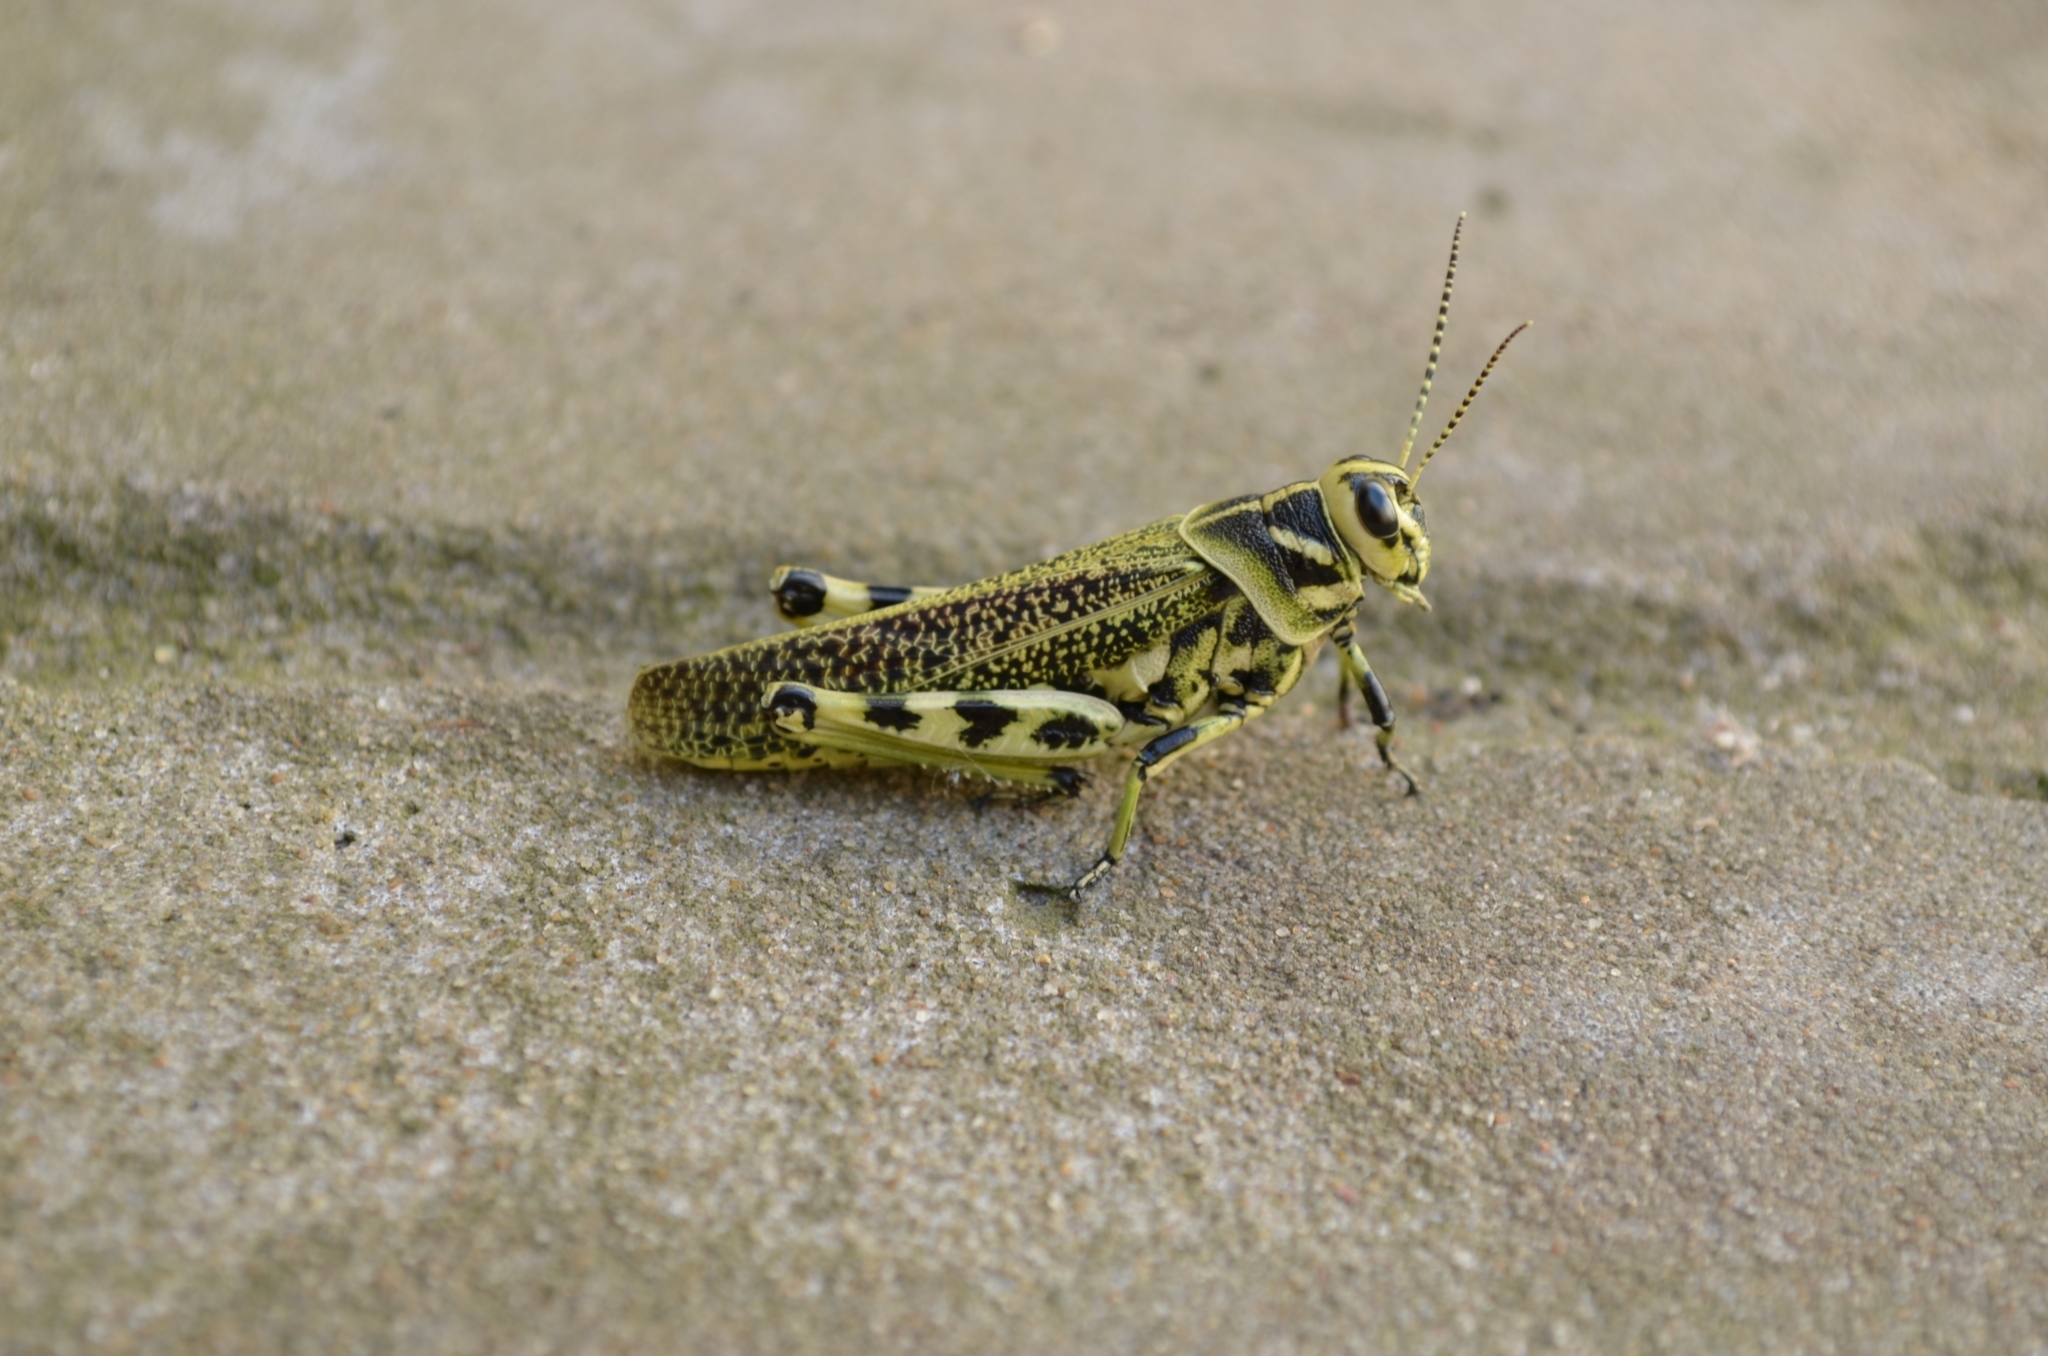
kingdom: Animalia
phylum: Arthropoda
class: Insecta
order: Orthoptera
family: Romaleidae
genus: Diponthus
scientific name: Diponthus argentinus
